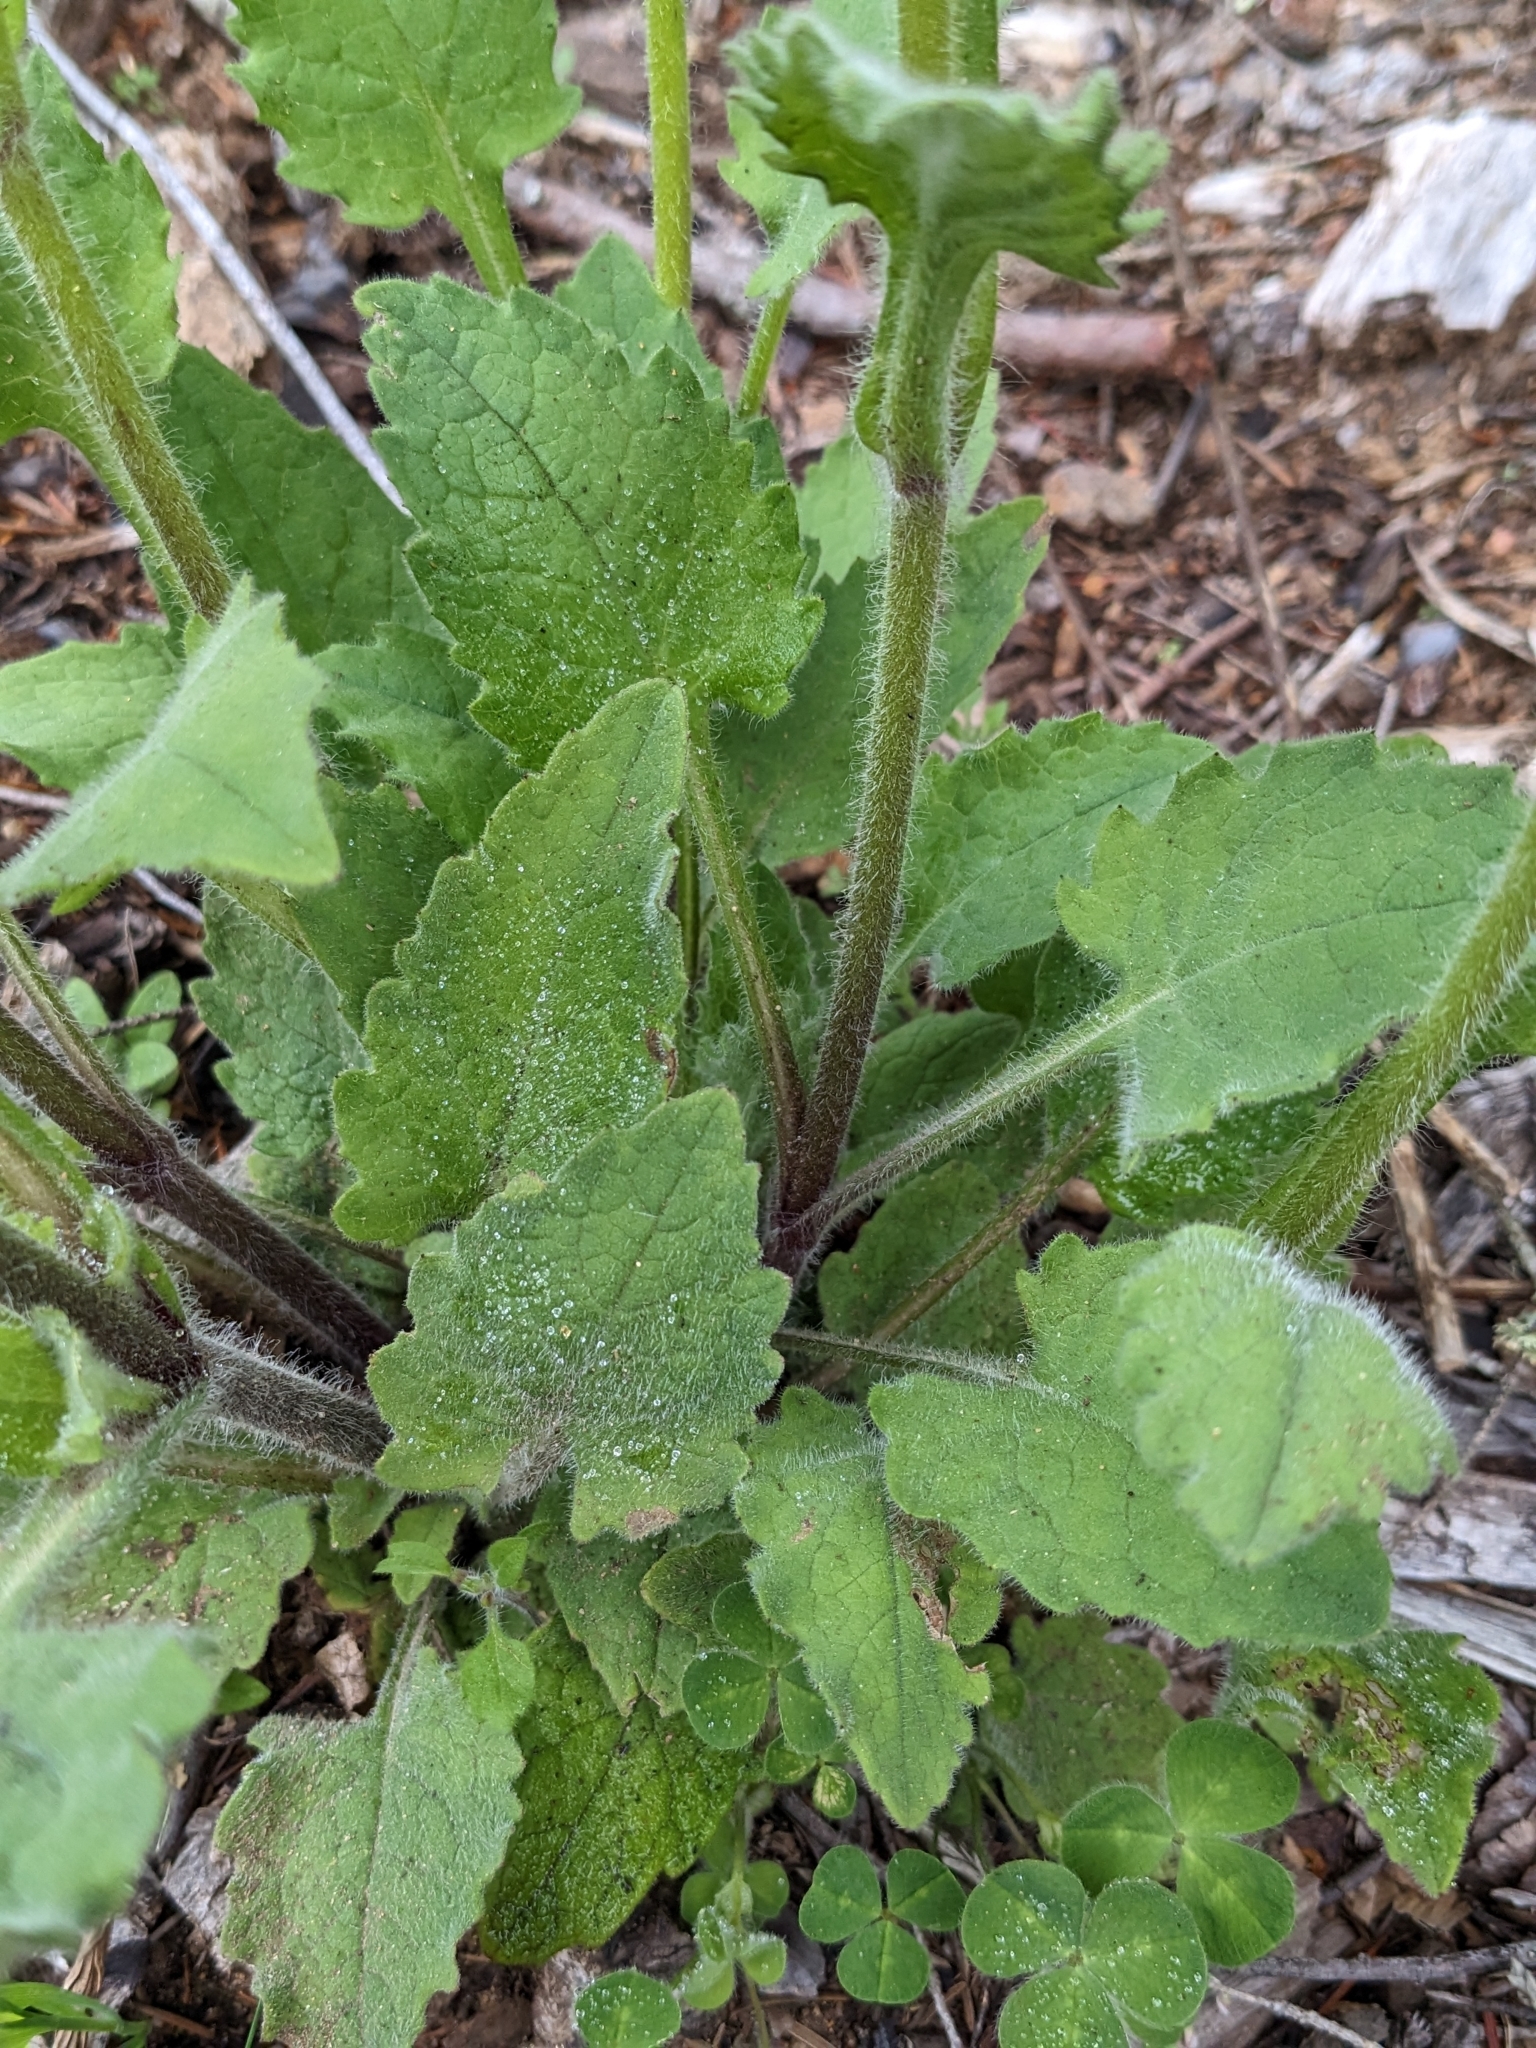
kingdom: Plantae
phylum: Tracheophyta
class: Magnoliopsida
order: Asterales
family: Asteraceae
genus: Arnica
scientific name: Arnica discoidea
